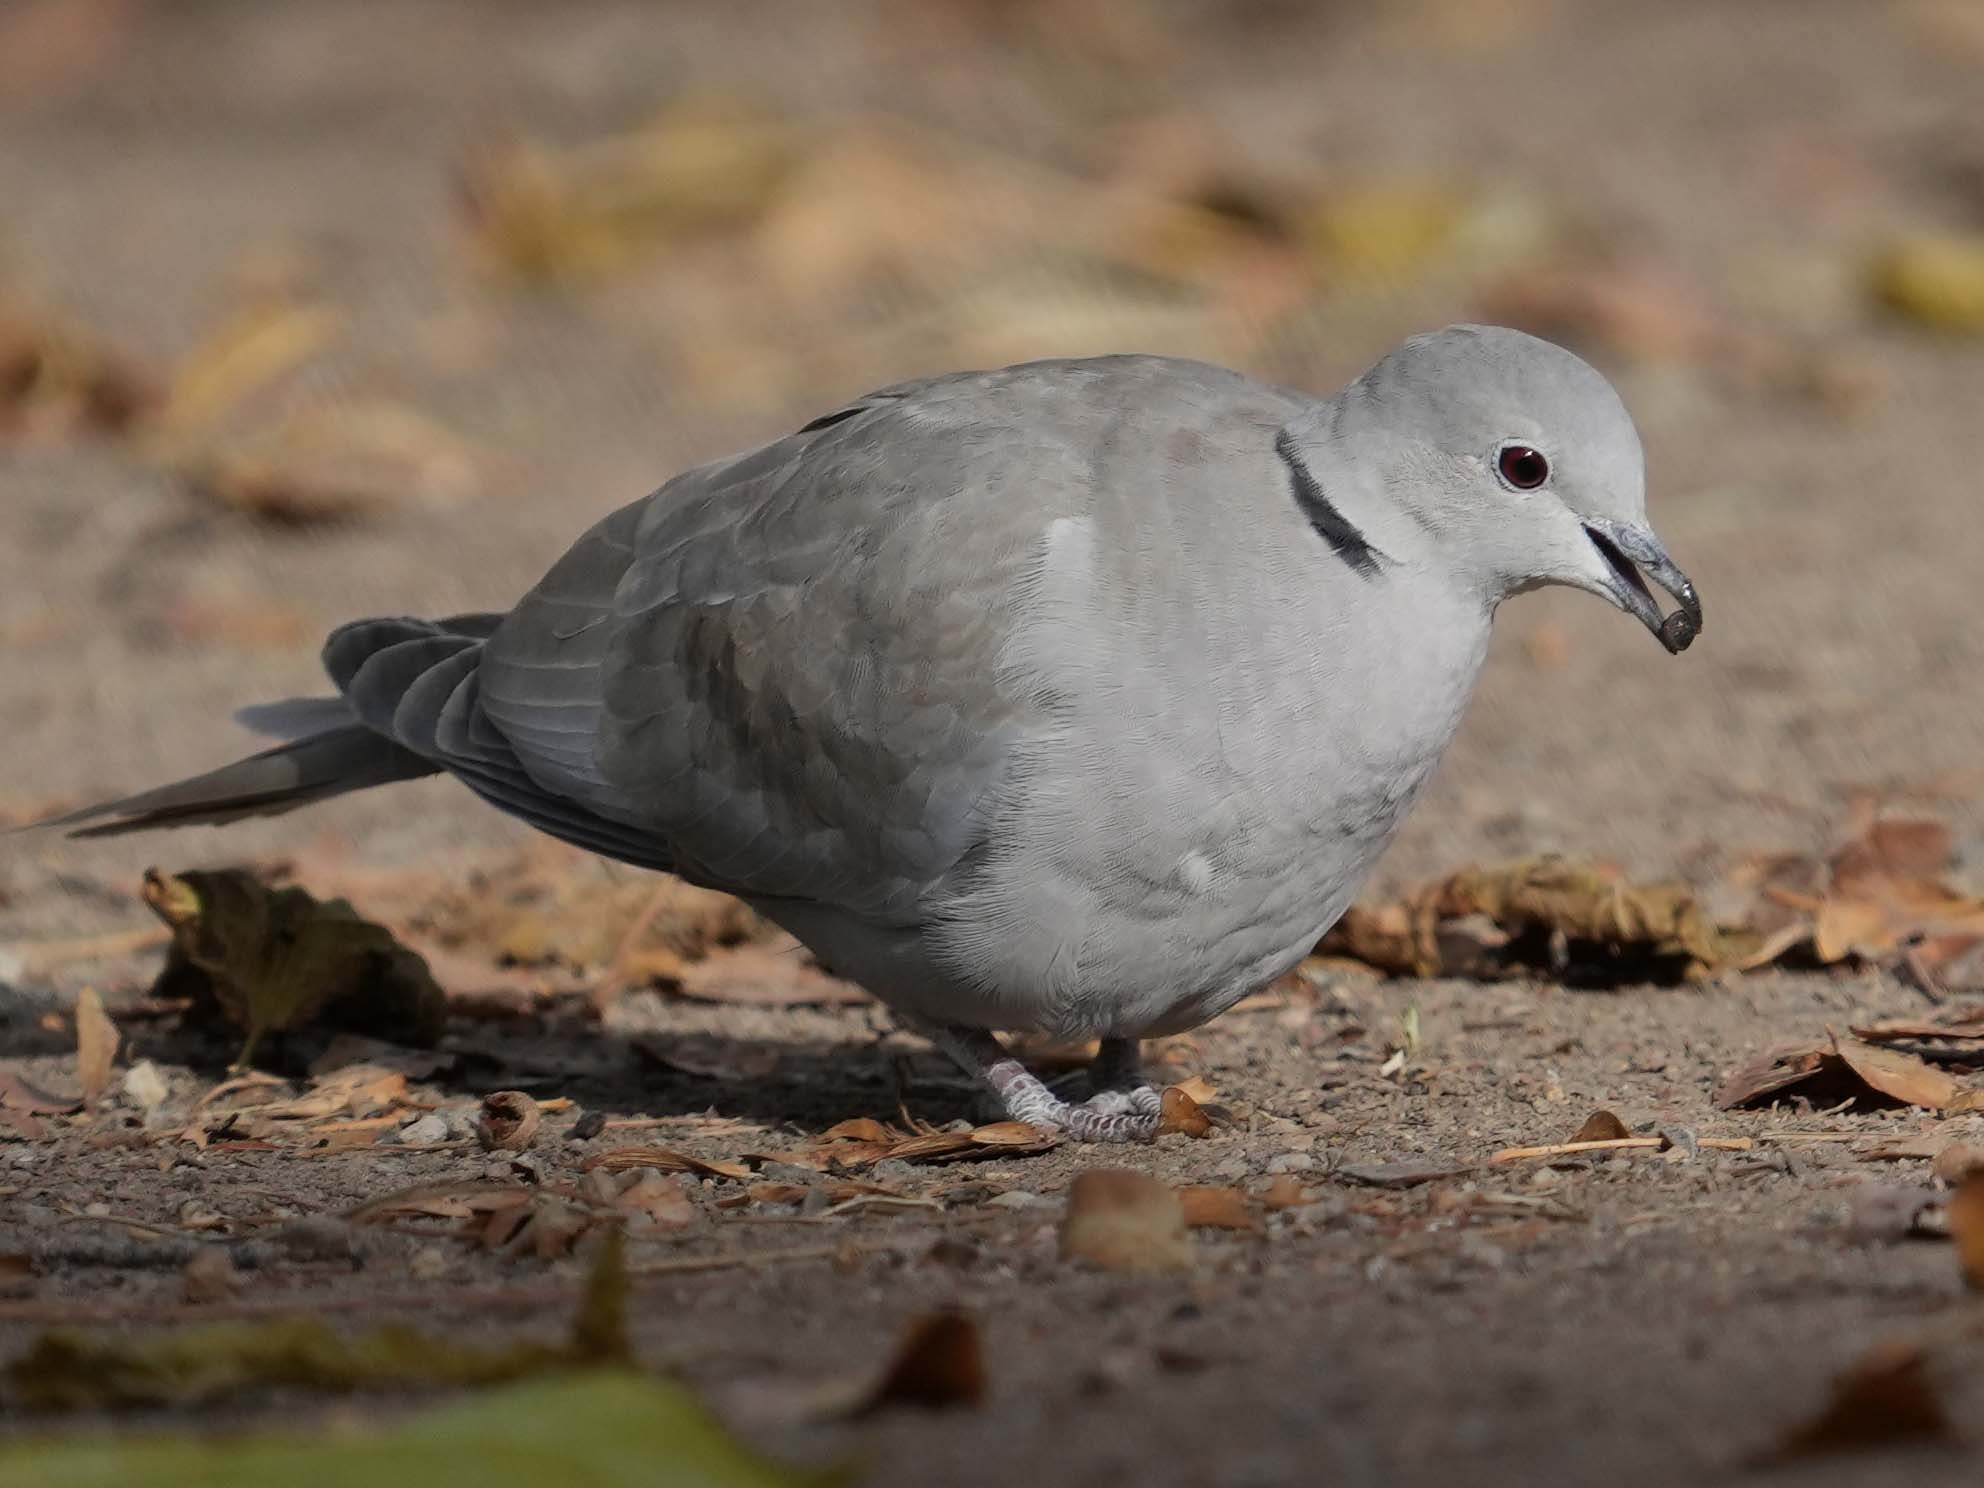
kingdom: Animalia
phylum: Chordata
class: Aves
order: Columbiformes
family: Columbidae
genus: Streptopelia
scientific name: Streptopelia decaocto
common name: Eurasian collared dove
